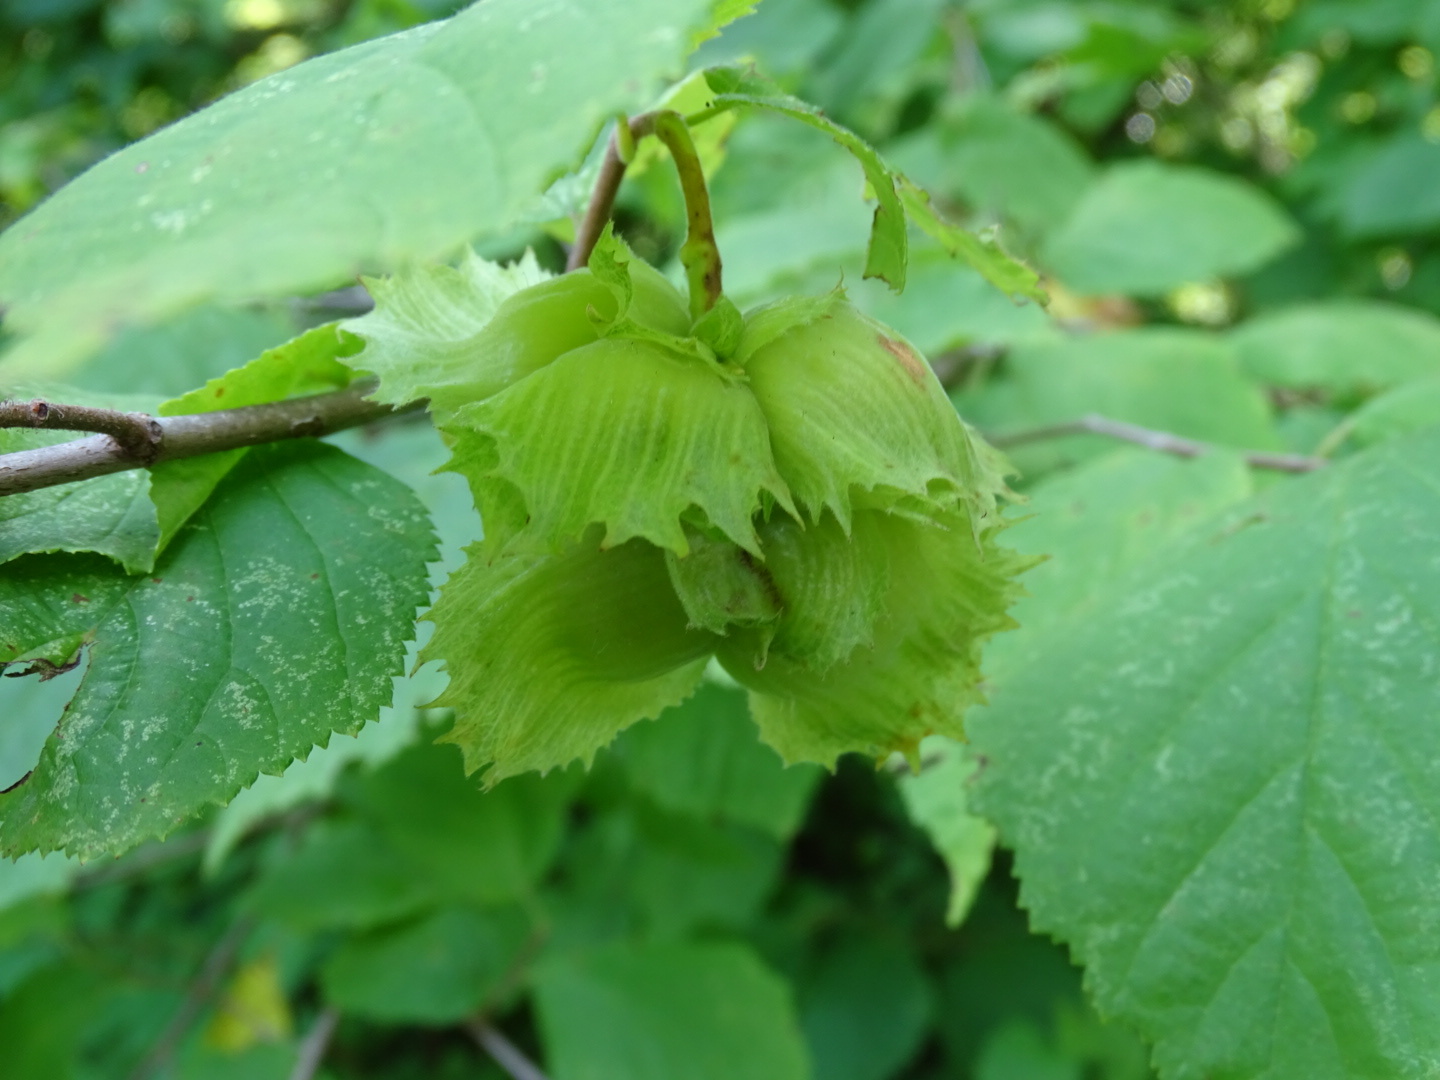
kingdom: Plantae
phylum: Tracheophyta
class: Magnoliopsida
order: Fagales
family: Betulaceae
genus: Corylus
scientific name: Corylus americana
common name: American hazel
